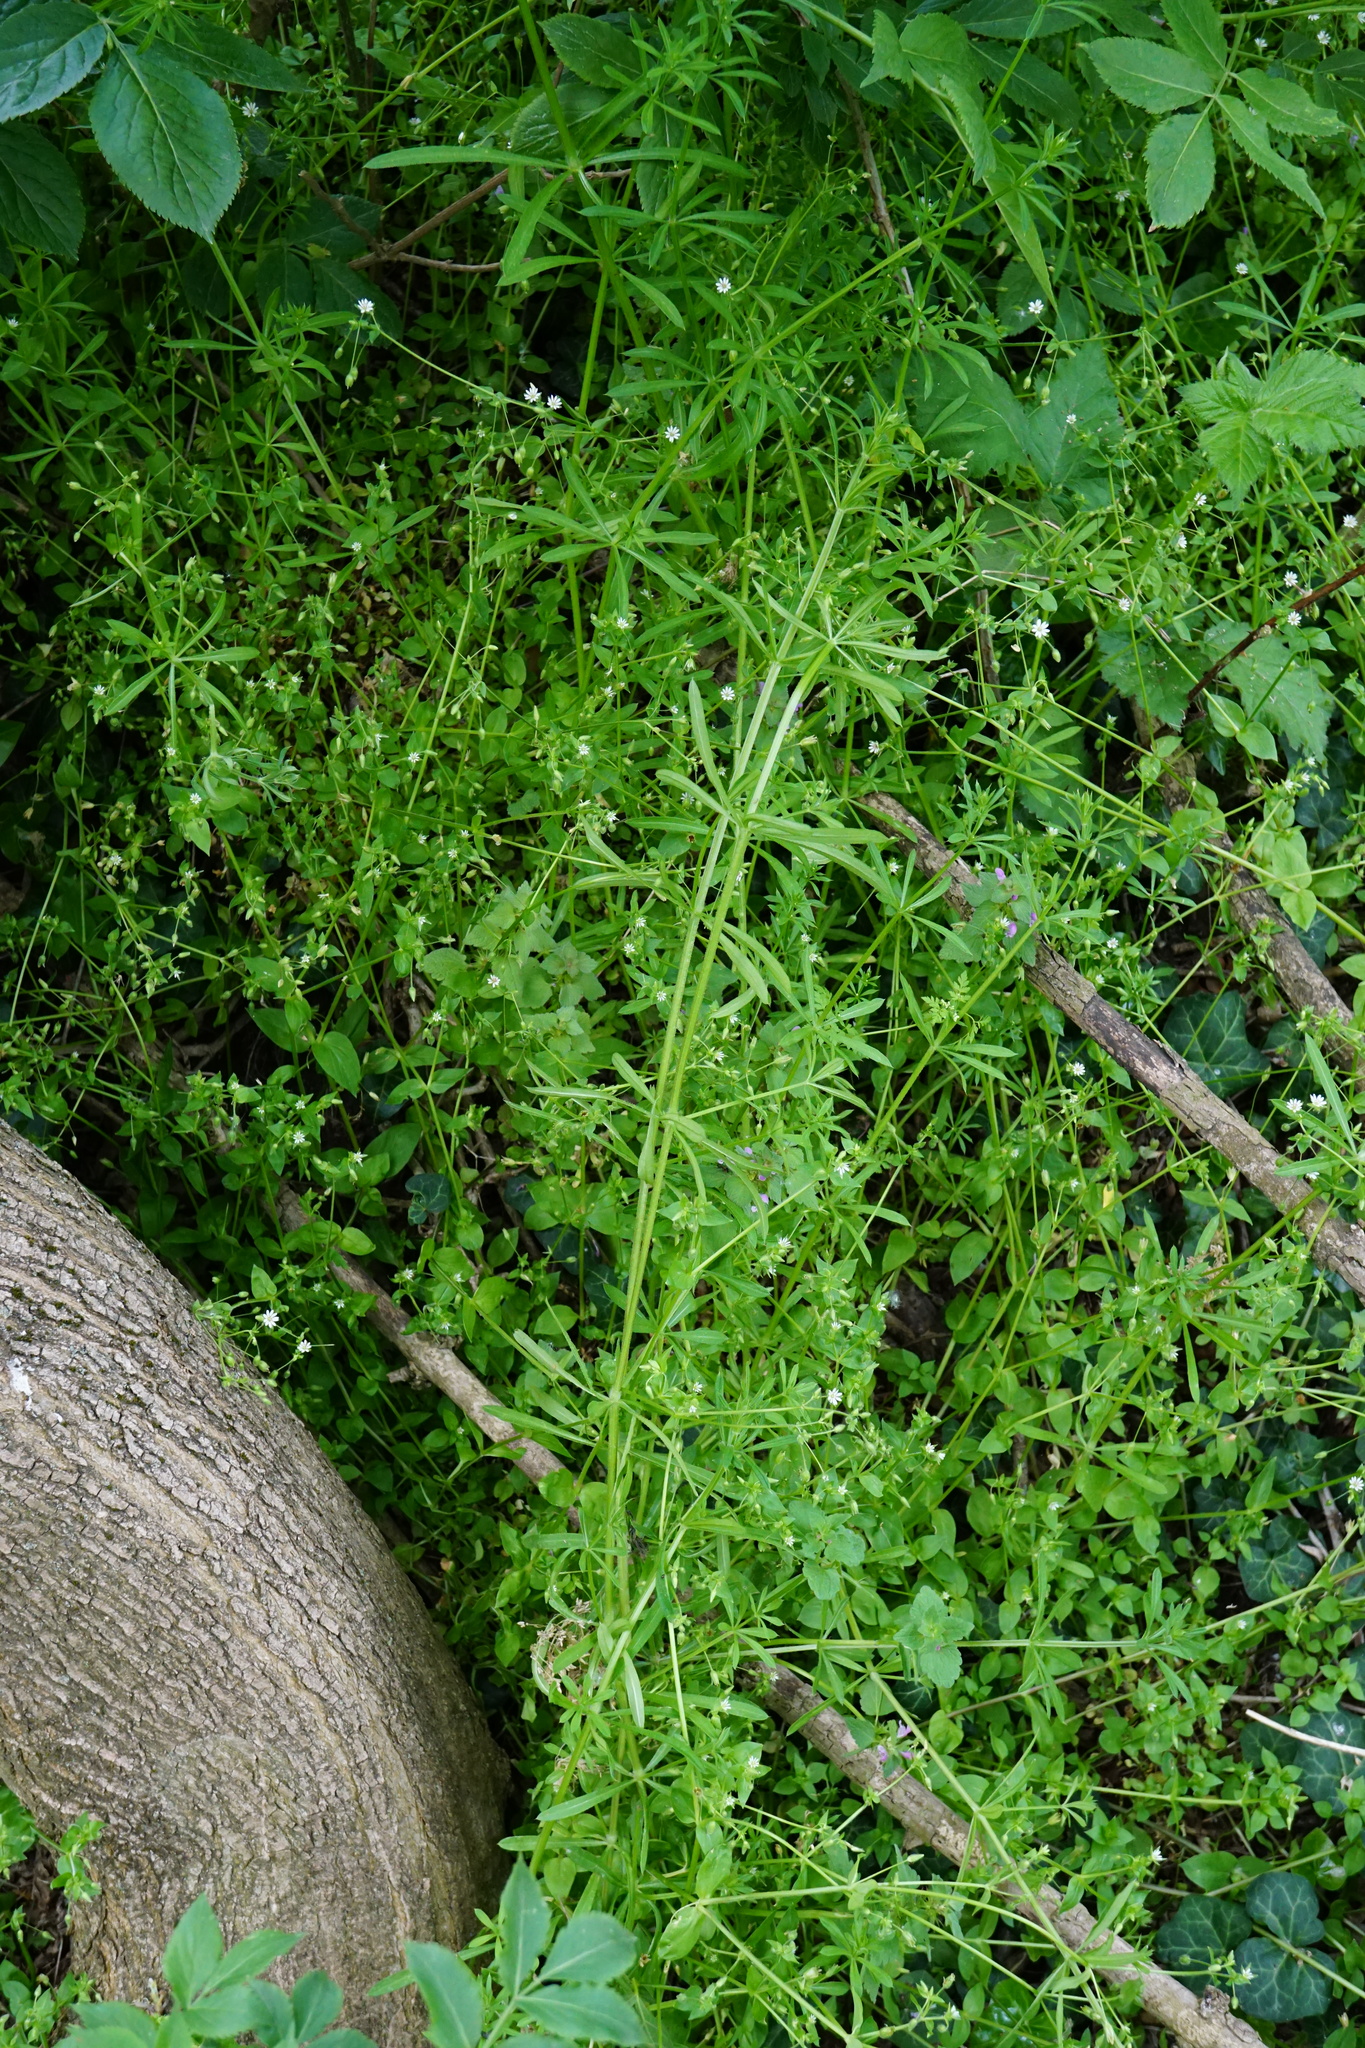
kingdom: Plantae
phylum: Tracheophyta
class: Magnoliopsida
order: Gentianales
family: Rubiaceae
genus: Galium
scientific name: Galium aparine
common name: Cleavers
